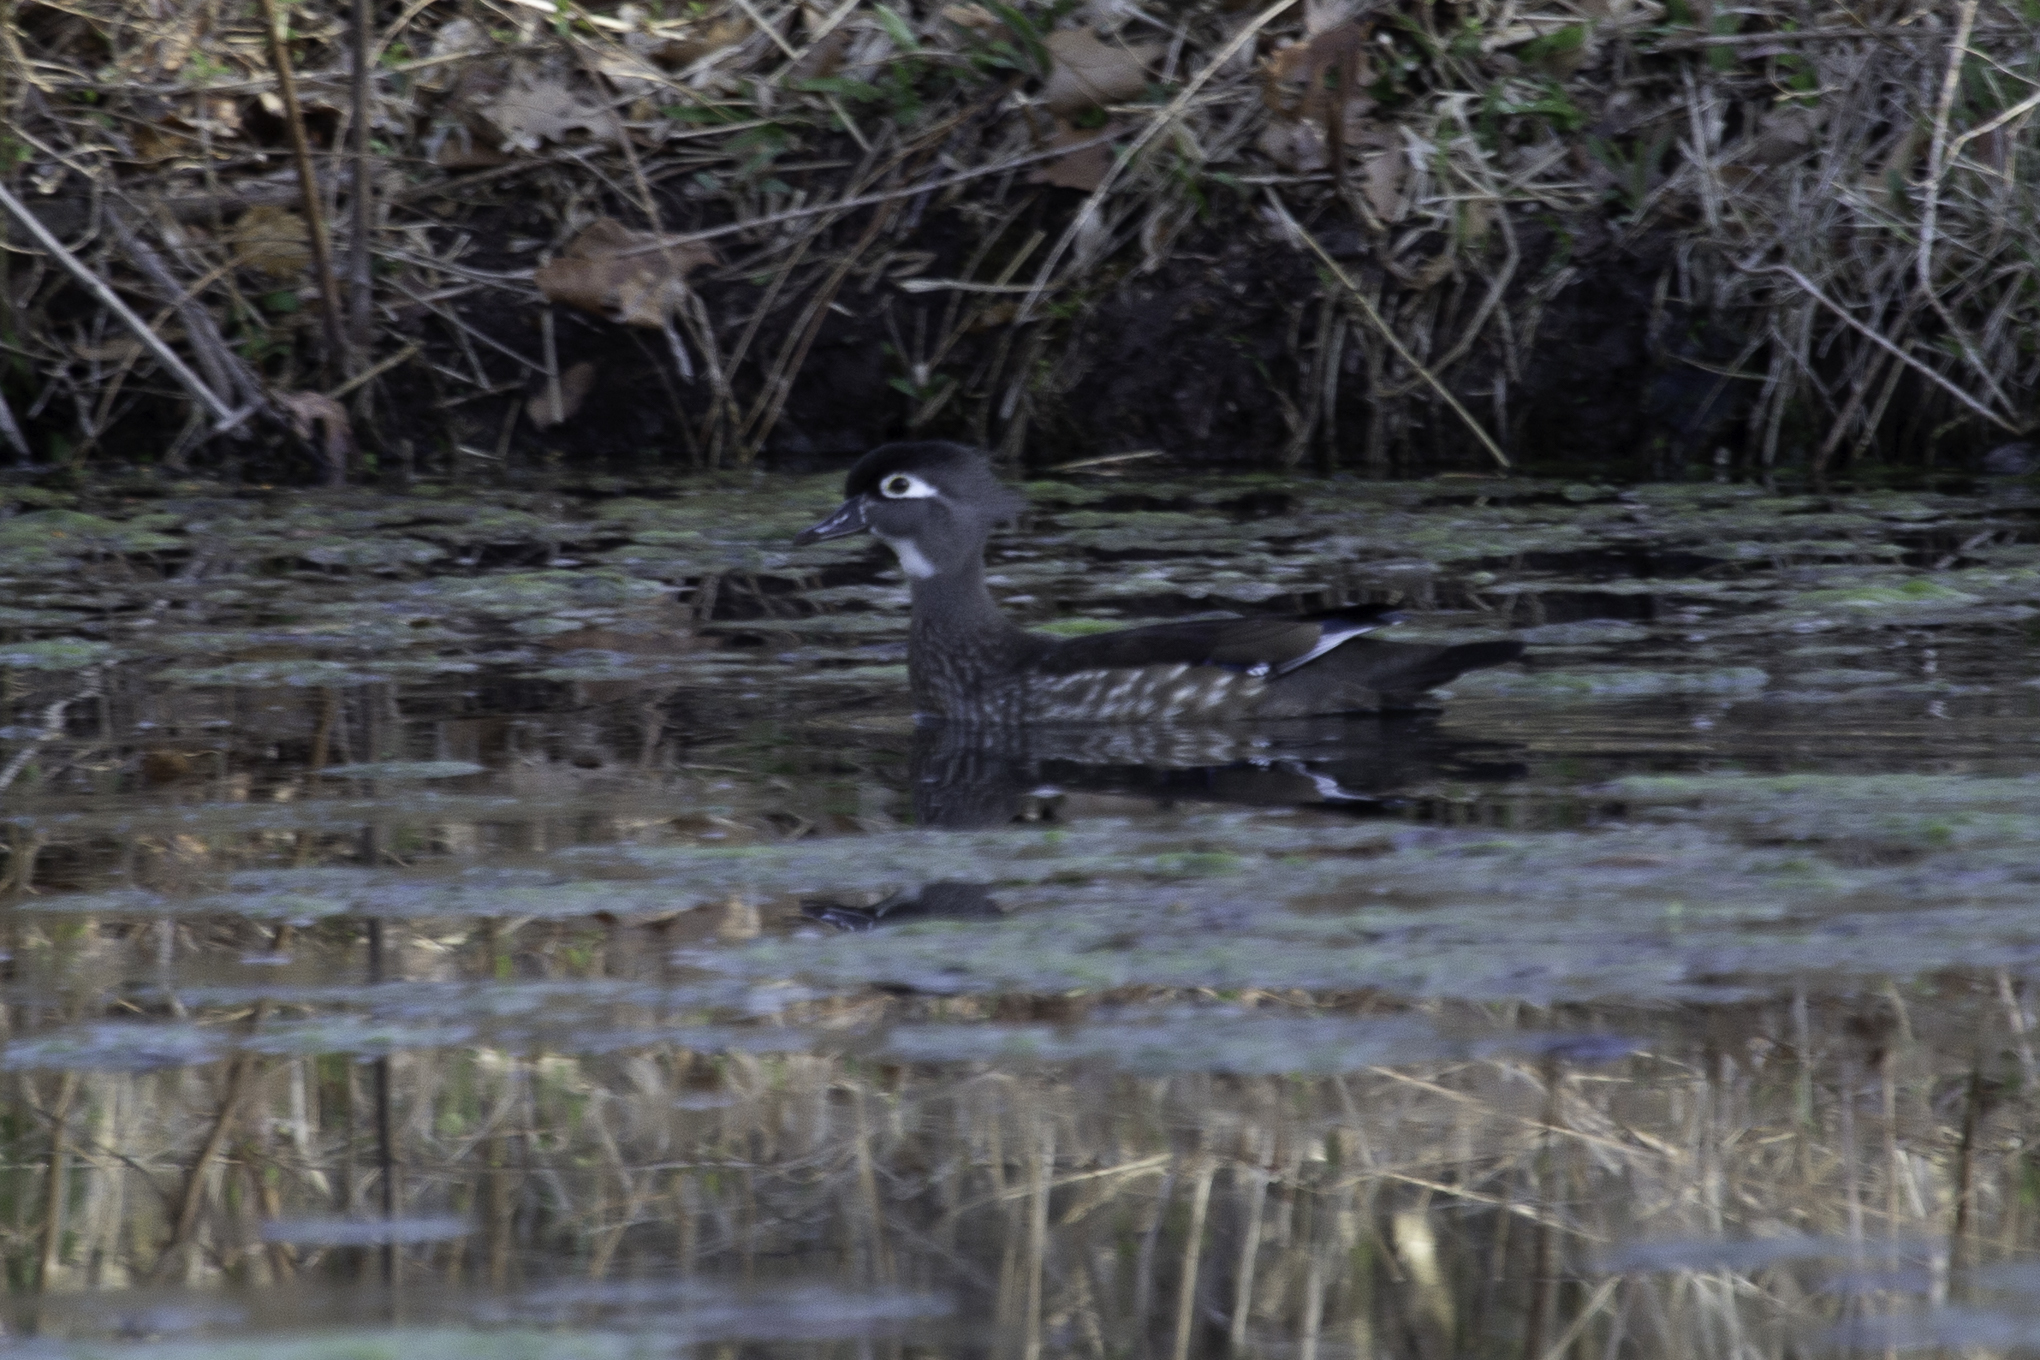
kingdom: Animalia
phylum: Chordata
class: Aves
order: Anseriformes
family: Anatidae
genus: Aix
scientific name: Aix sponsa
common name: Wood duck
